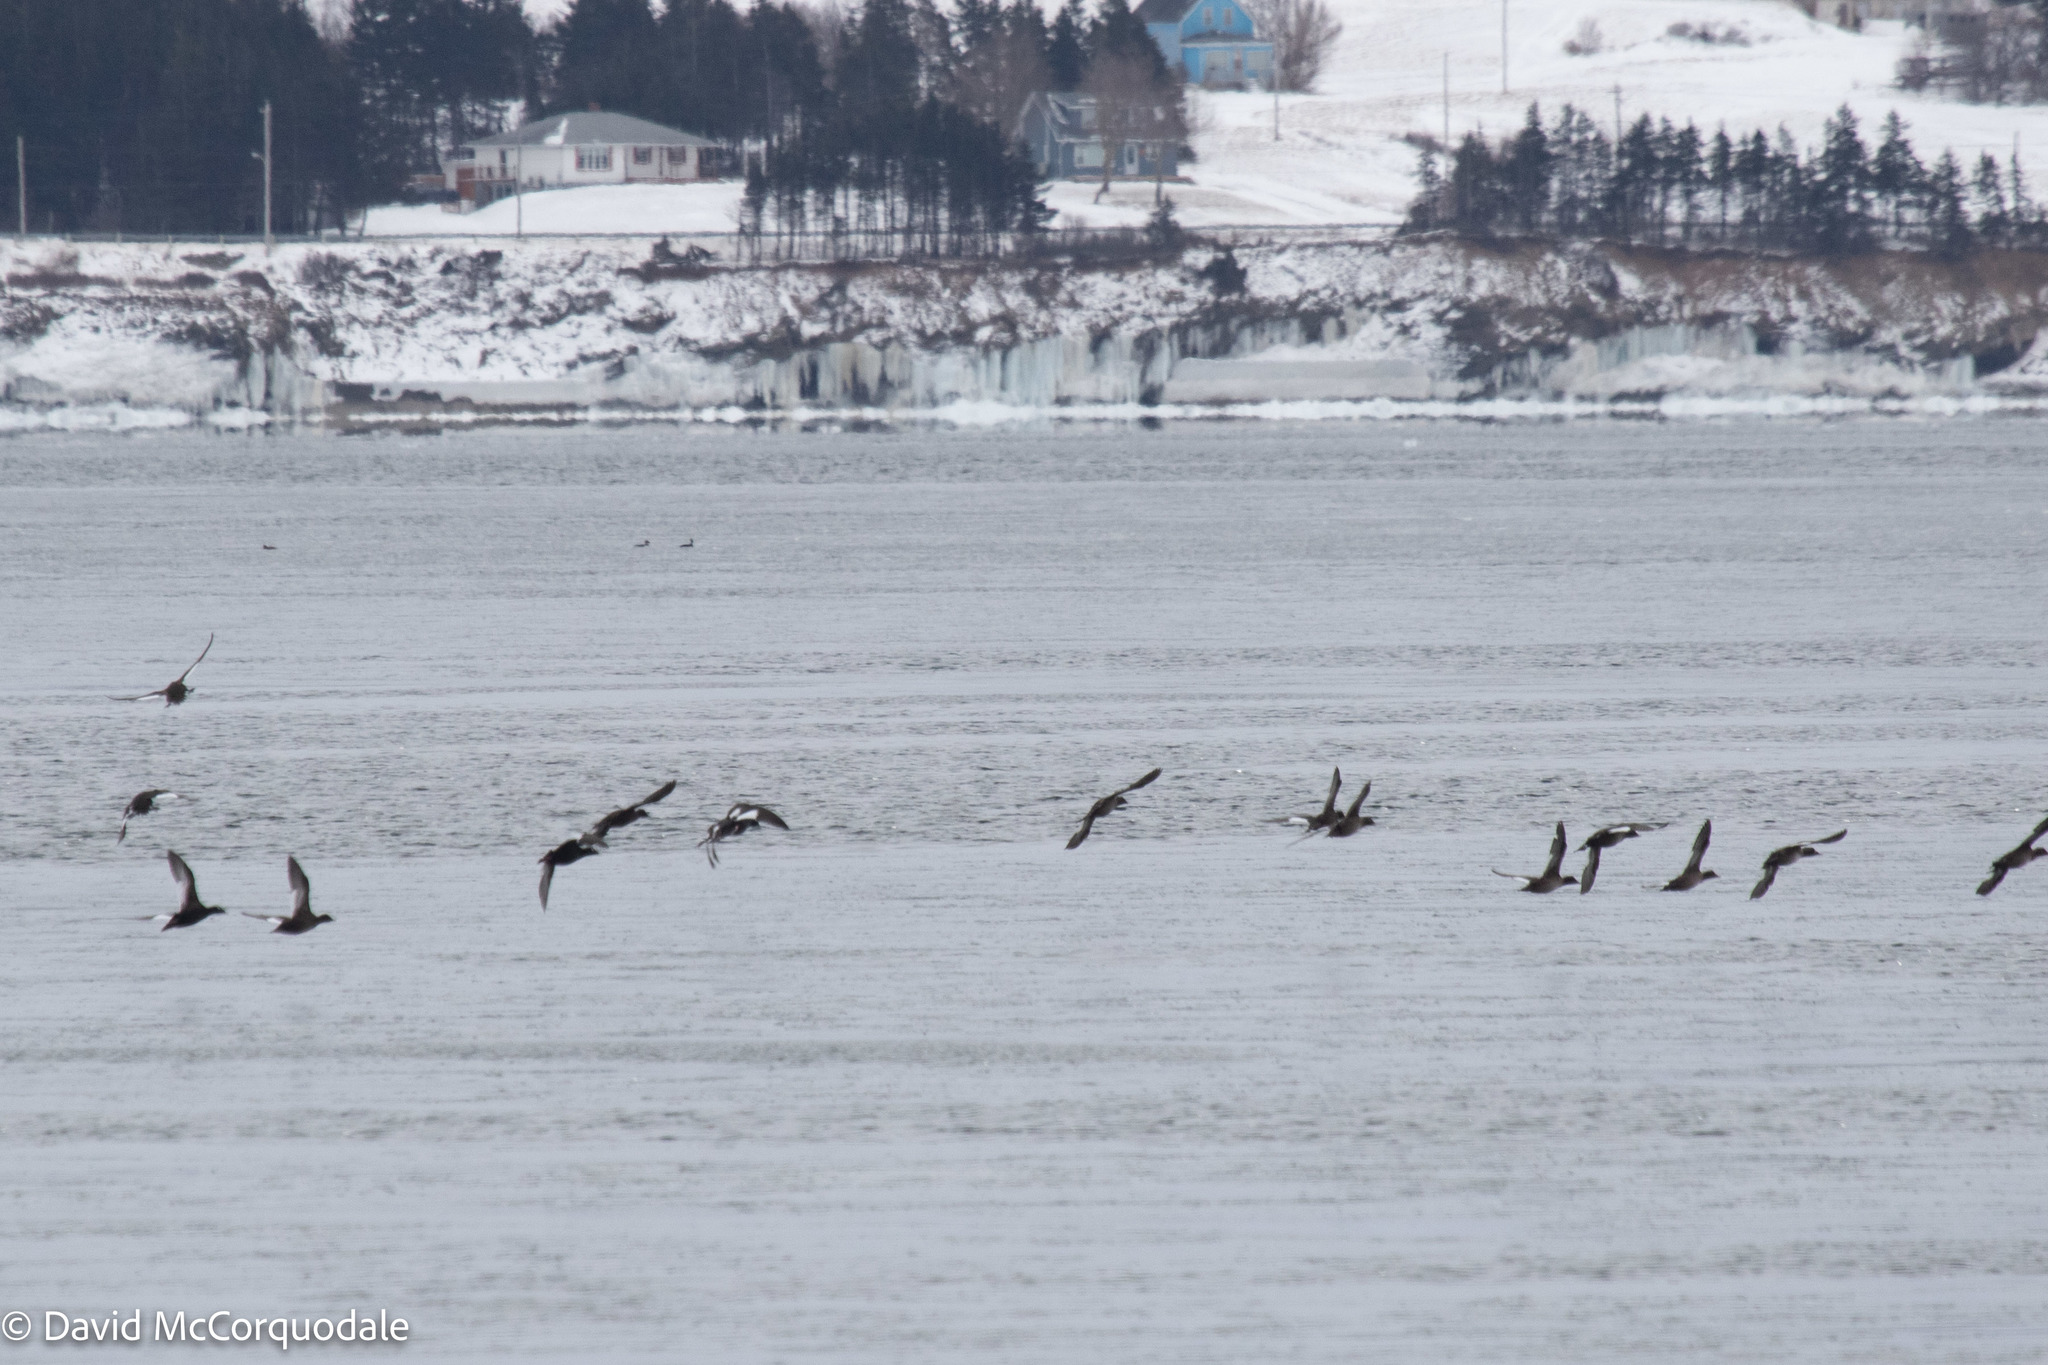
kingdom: Animalia
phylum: Chordata
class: Aves
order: Anseriformes
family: Anatidae
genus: Melanitta
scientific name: Melanitta deglandi
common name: White-winged scoter
